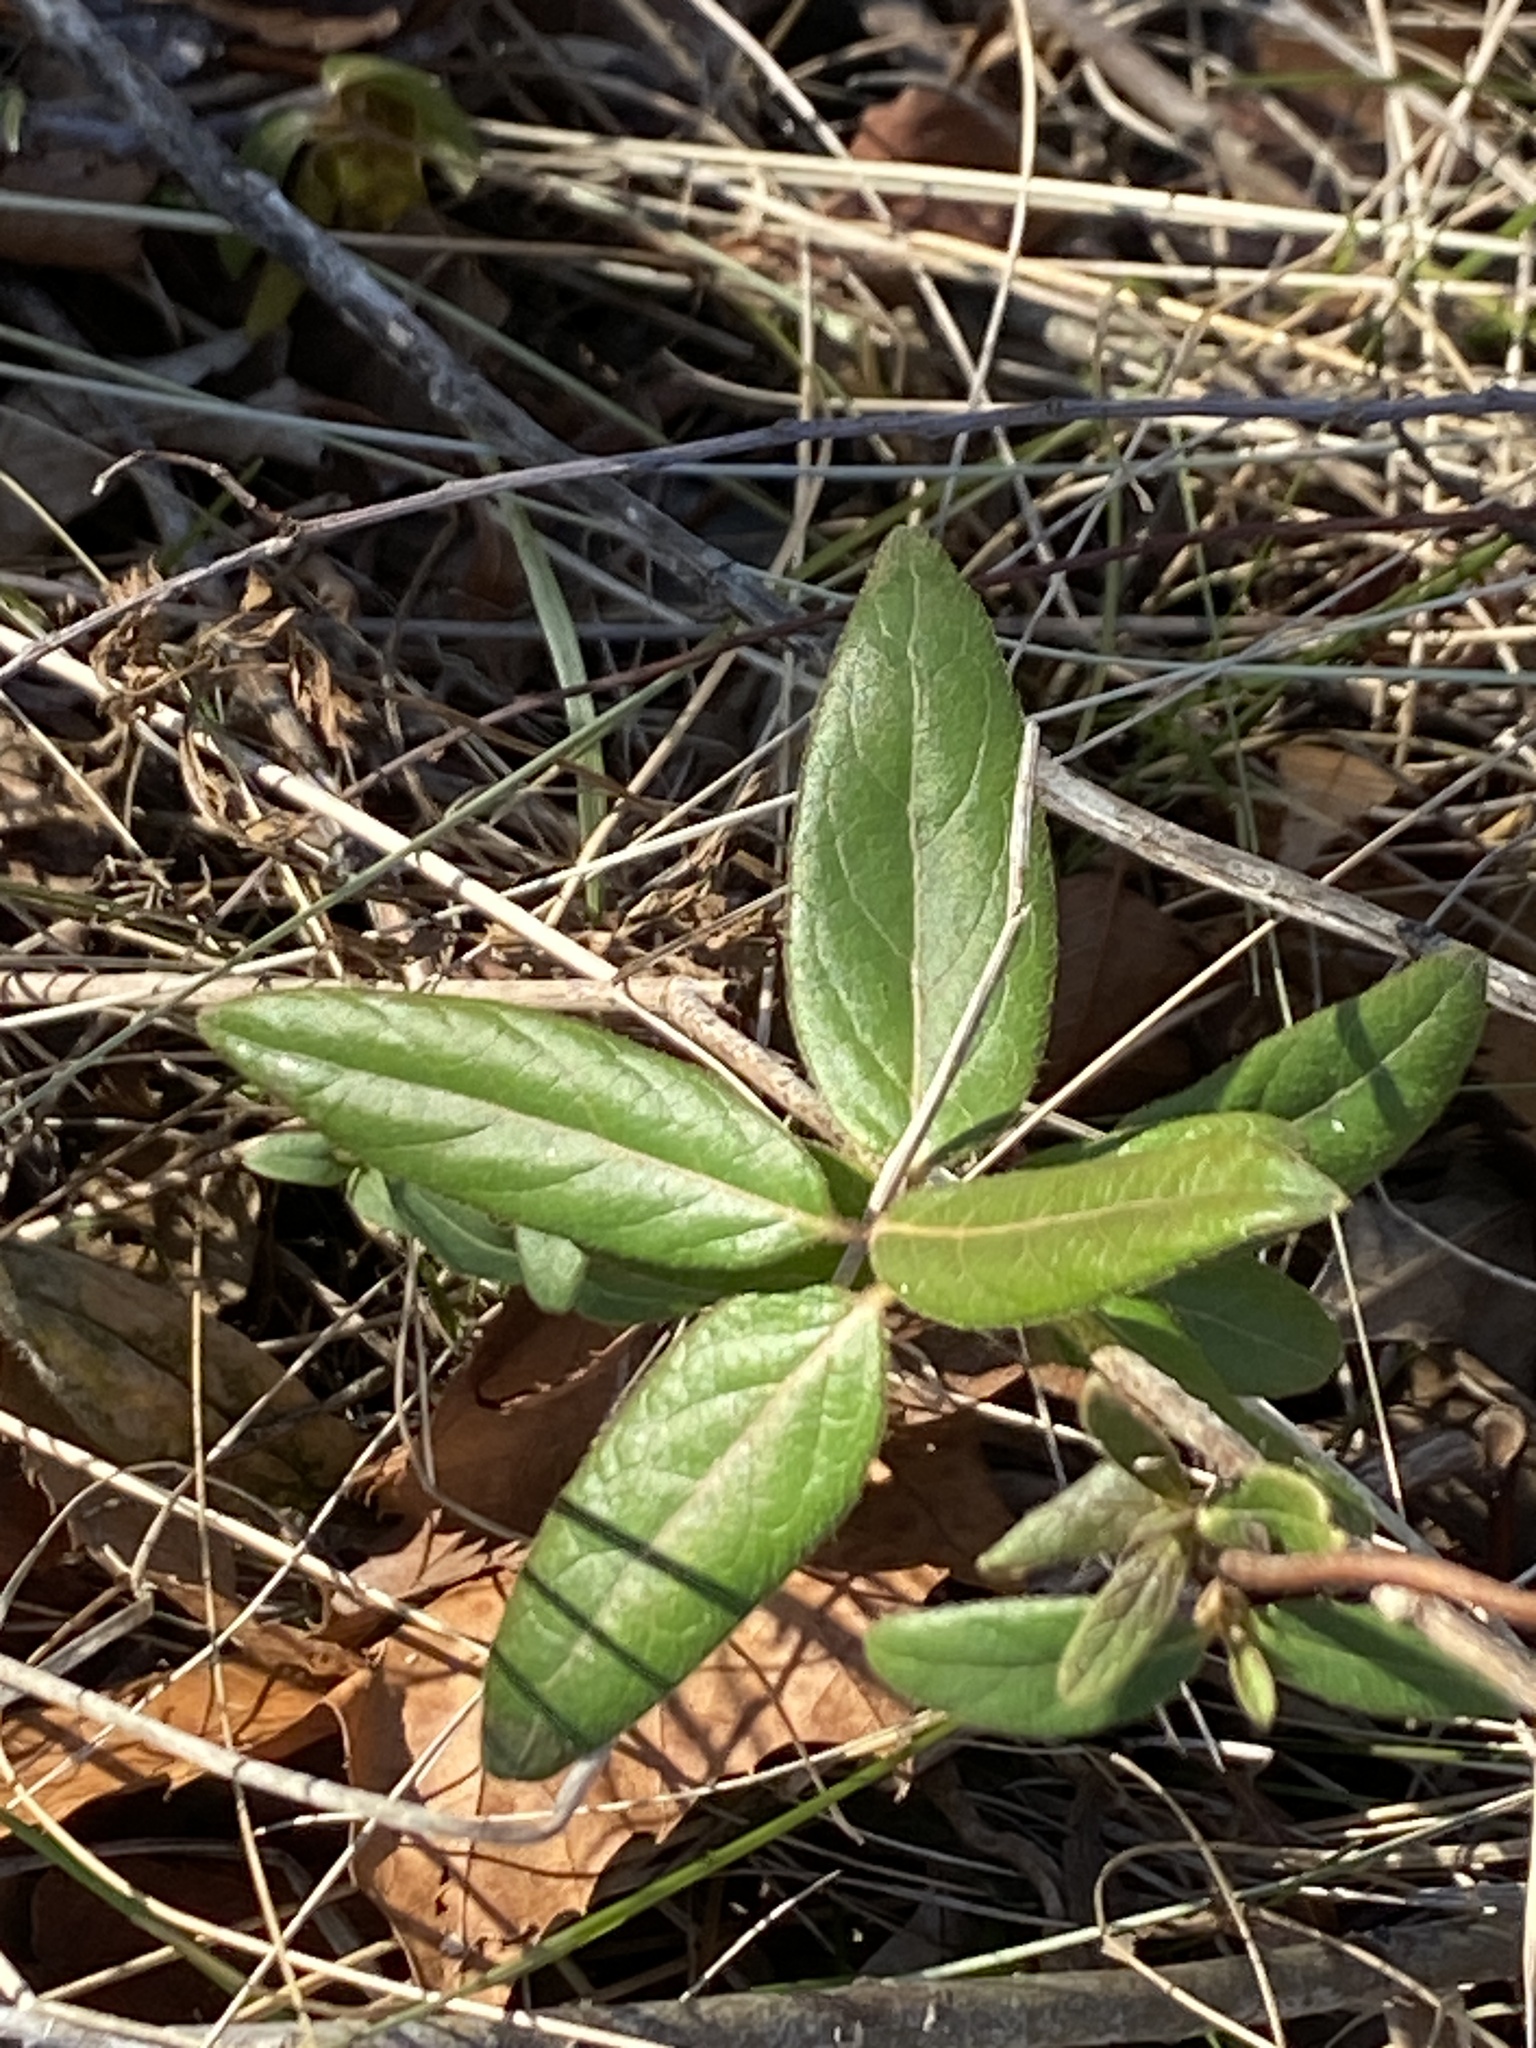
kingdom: Plantae
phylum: Tracheophyta
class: Magnoliopsida
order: Dipsacales
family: Caprifoliaceae
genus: Lonicera
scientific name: Lonicera japonica
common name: Japanese honeysuckle
